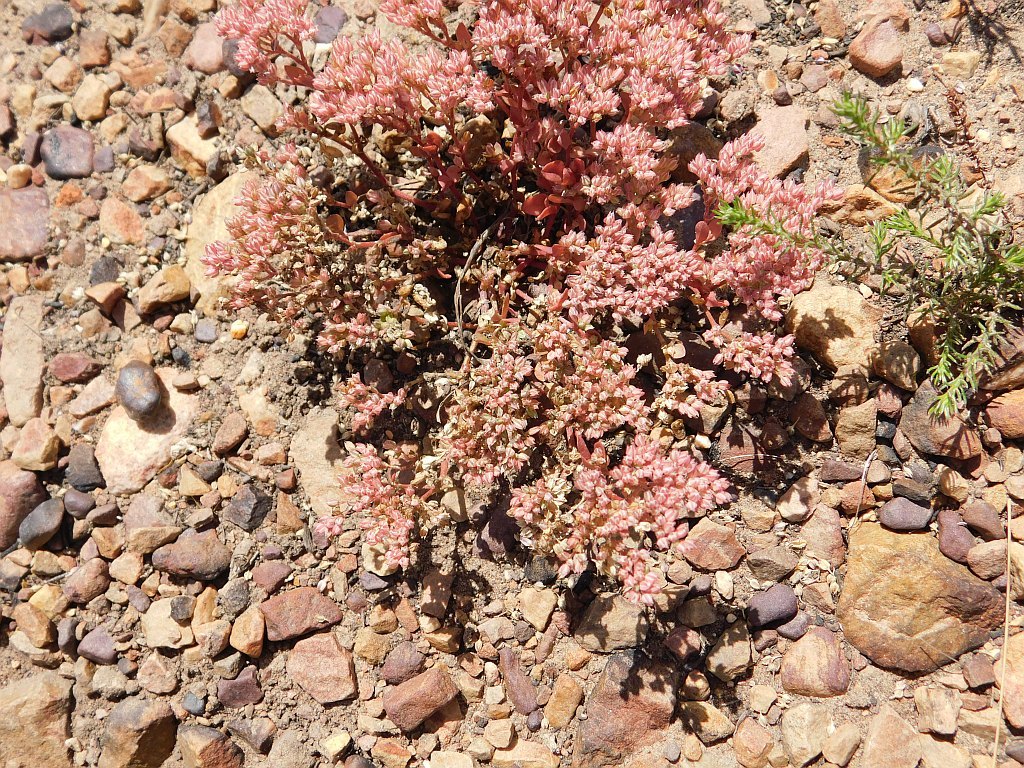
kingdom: Plantae
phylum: Tracheophyta
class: Magnoliopsida
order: Caryophyllales
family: Caryophyllaceae
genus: Polycarpon
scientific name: Polycarpon tetraphyllum
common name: Four-leaved all-seed
